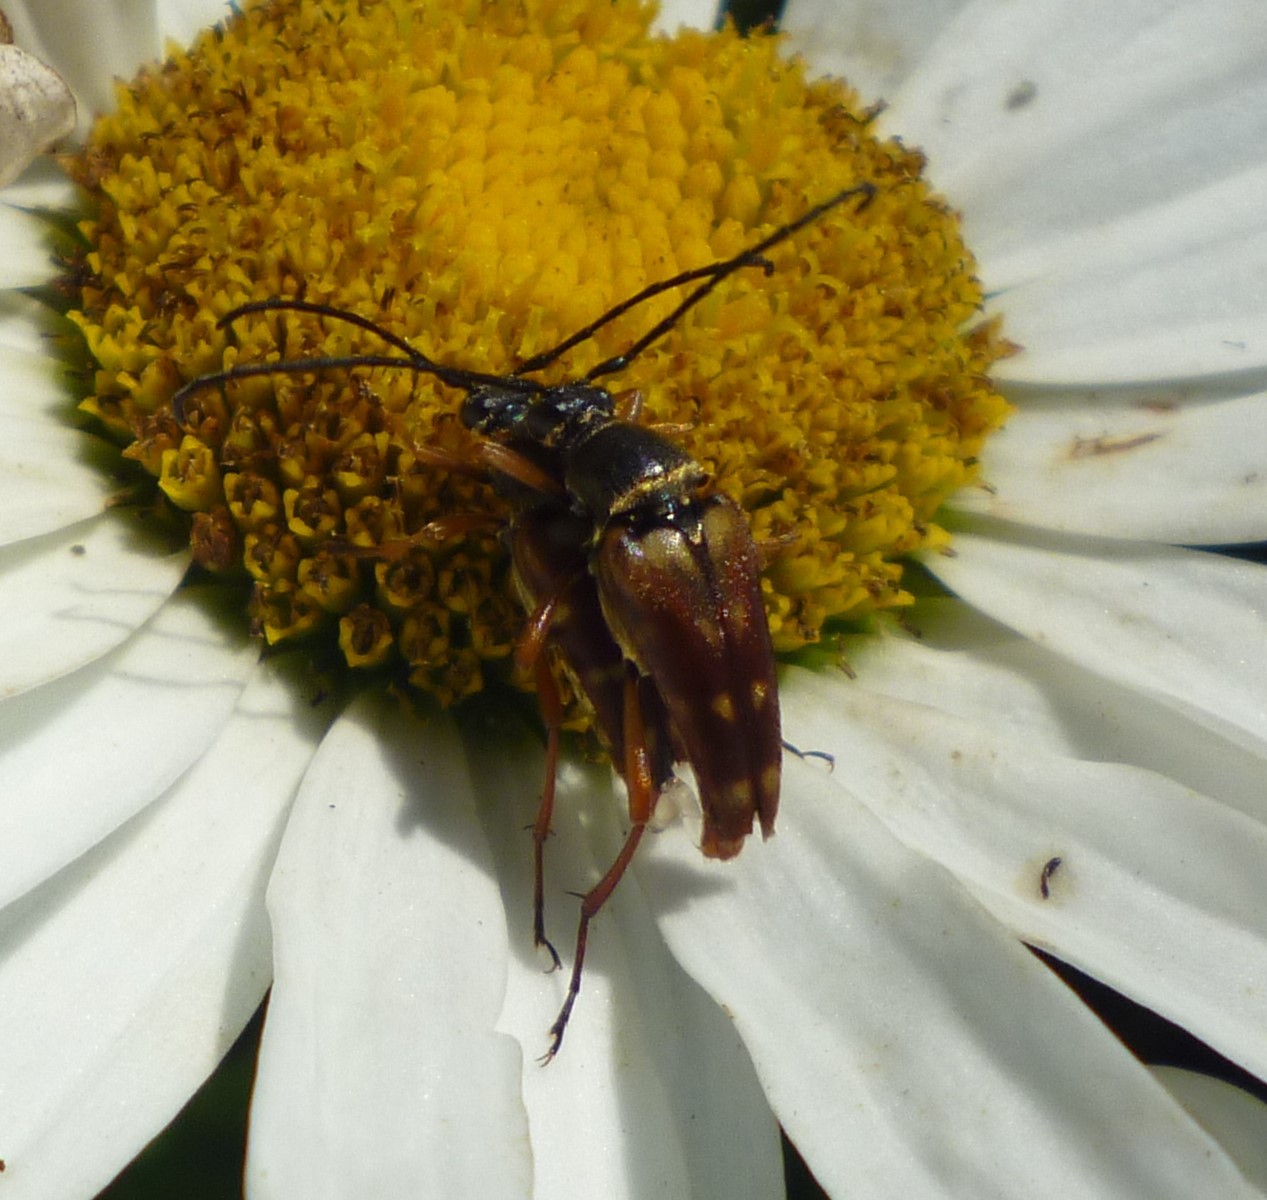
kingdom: Animalia
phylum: Arthropoda
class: Insecta
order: Coleoptera
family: Cerambycidae
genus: Typocerus
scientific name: Typocerus velutinus
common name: Banded longhorn beetle
